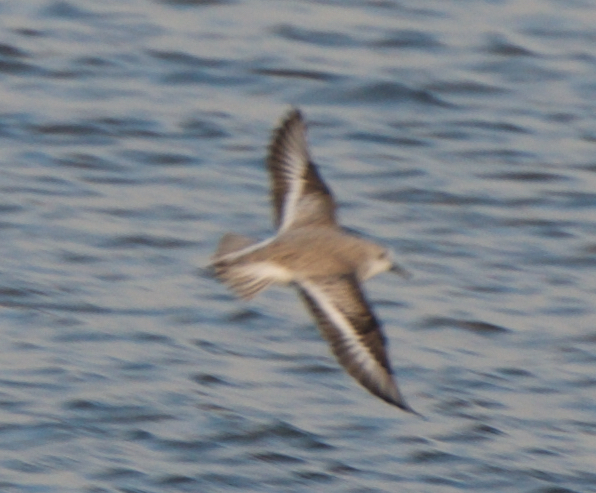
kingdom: Animalia
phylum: Chordata
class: Aves
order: Charadriiformes
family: Scolopacidae
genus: Calidris
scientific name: Calidris alba
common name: Sanderling
